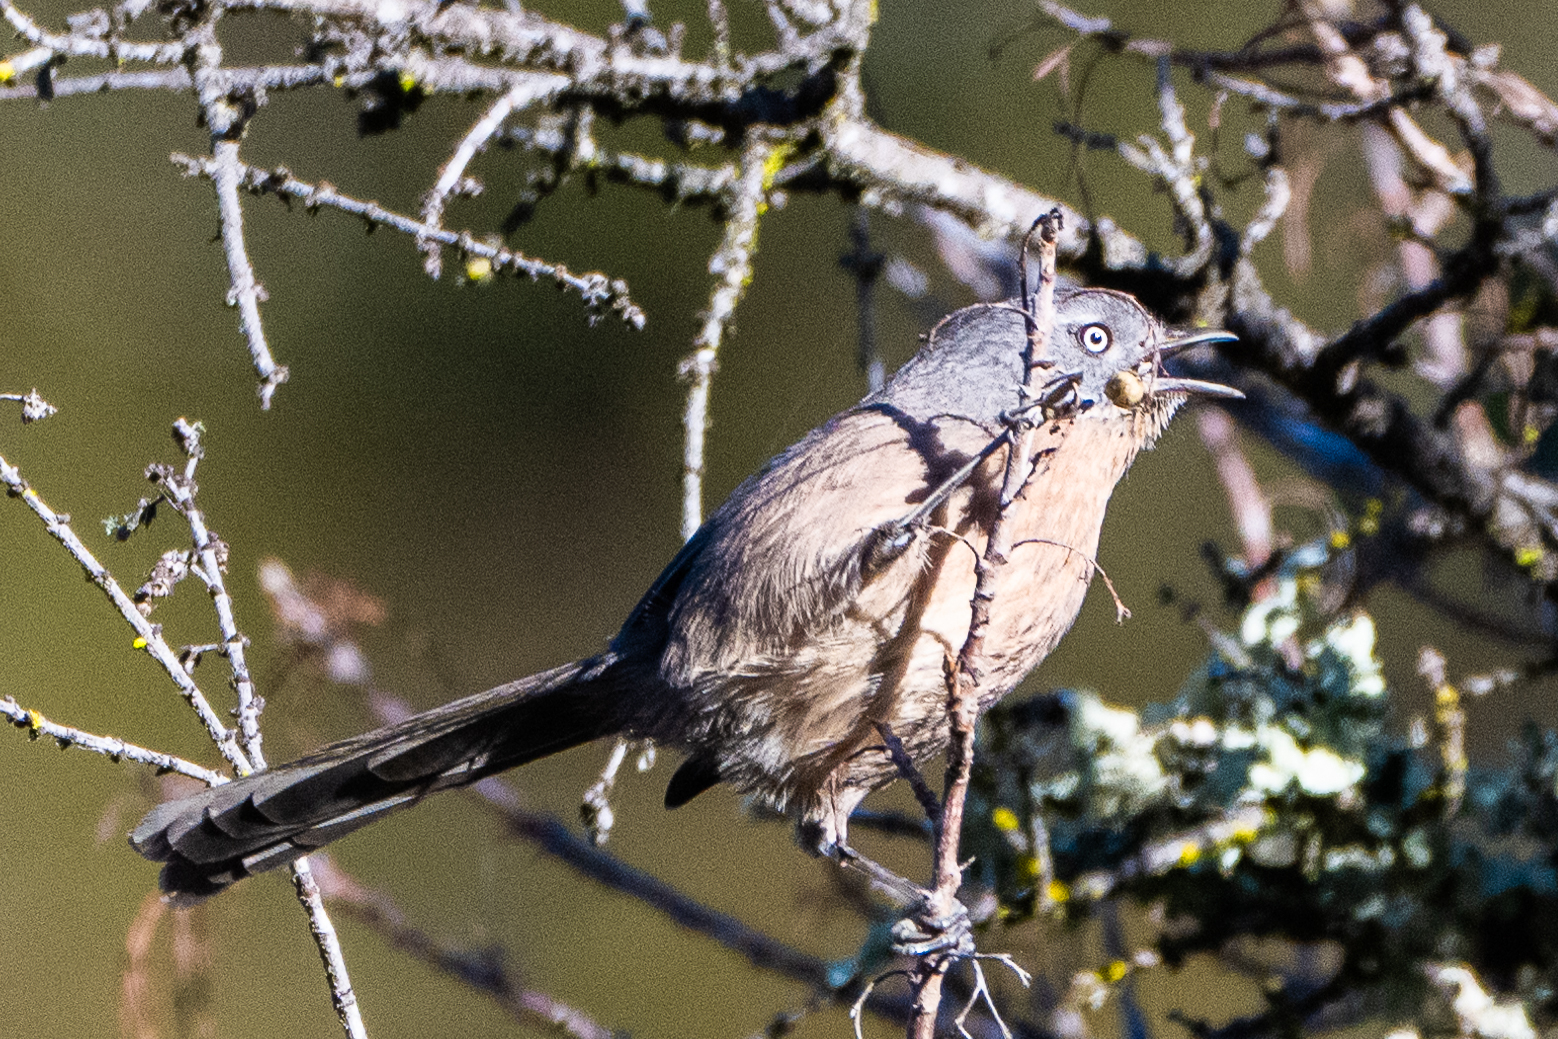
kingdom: Animalia
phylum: Chordata
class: Aves
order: Passeriformes
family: Sylviidae
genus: Chamaea
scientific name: Chamaea fasciata
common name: Wrentit
